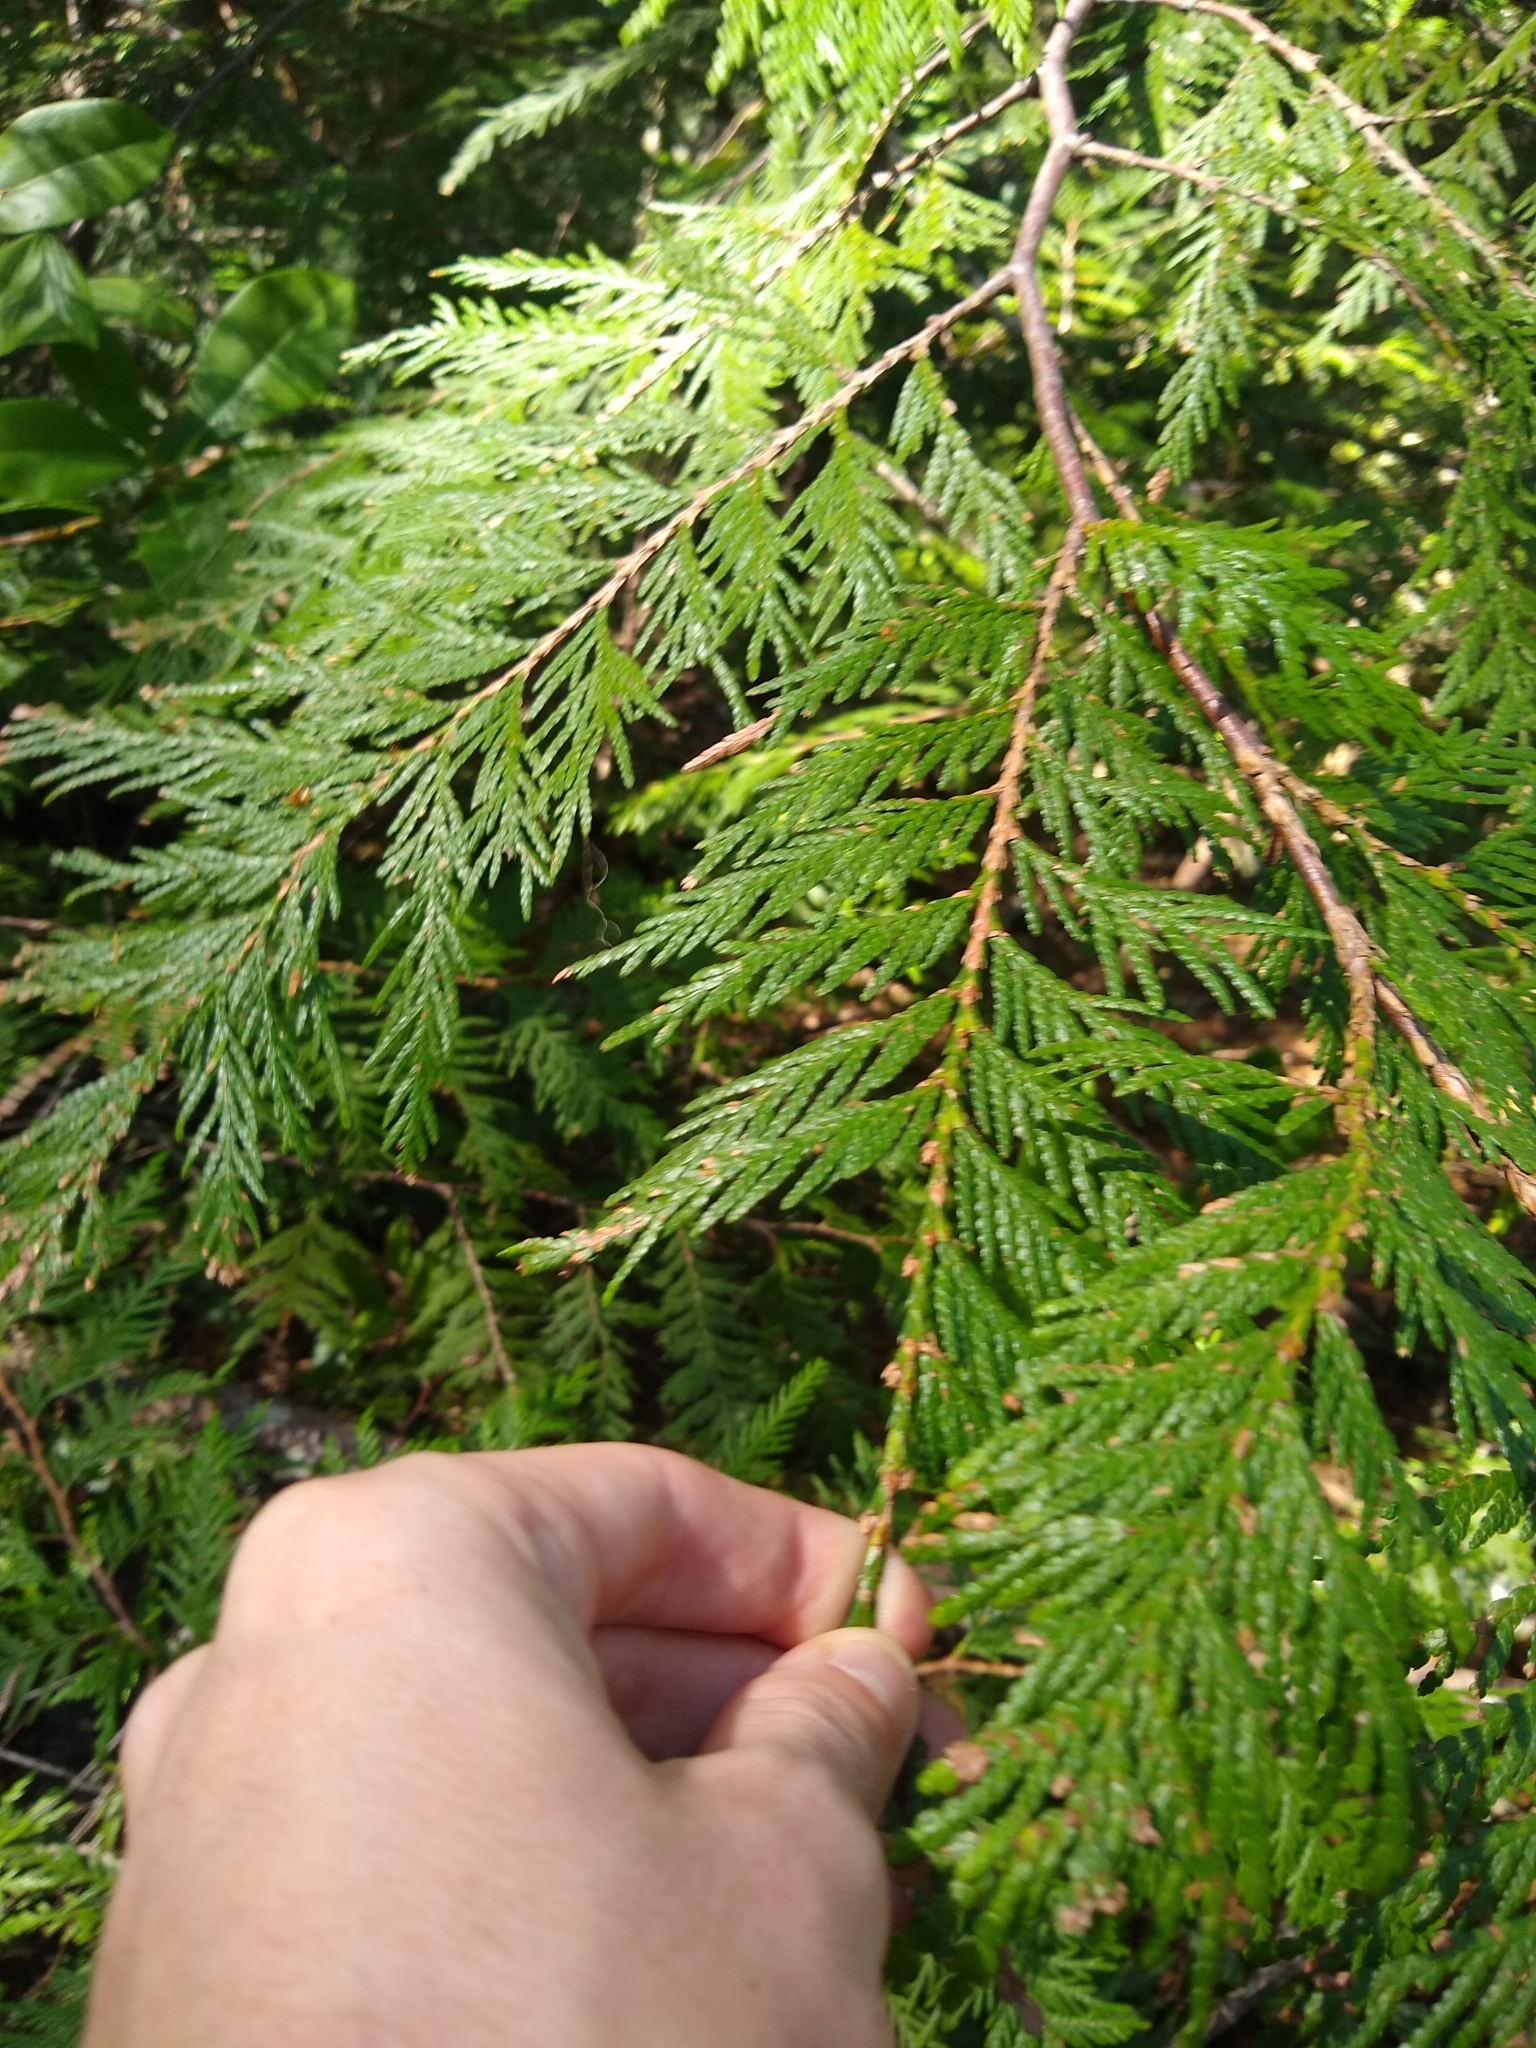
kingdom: Plantae
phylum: Tracheophyta
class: Pinopsida
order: Pinales
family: Cupressaceae
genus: Thuja
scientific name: Thuja plicata
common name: Western red-cedar
